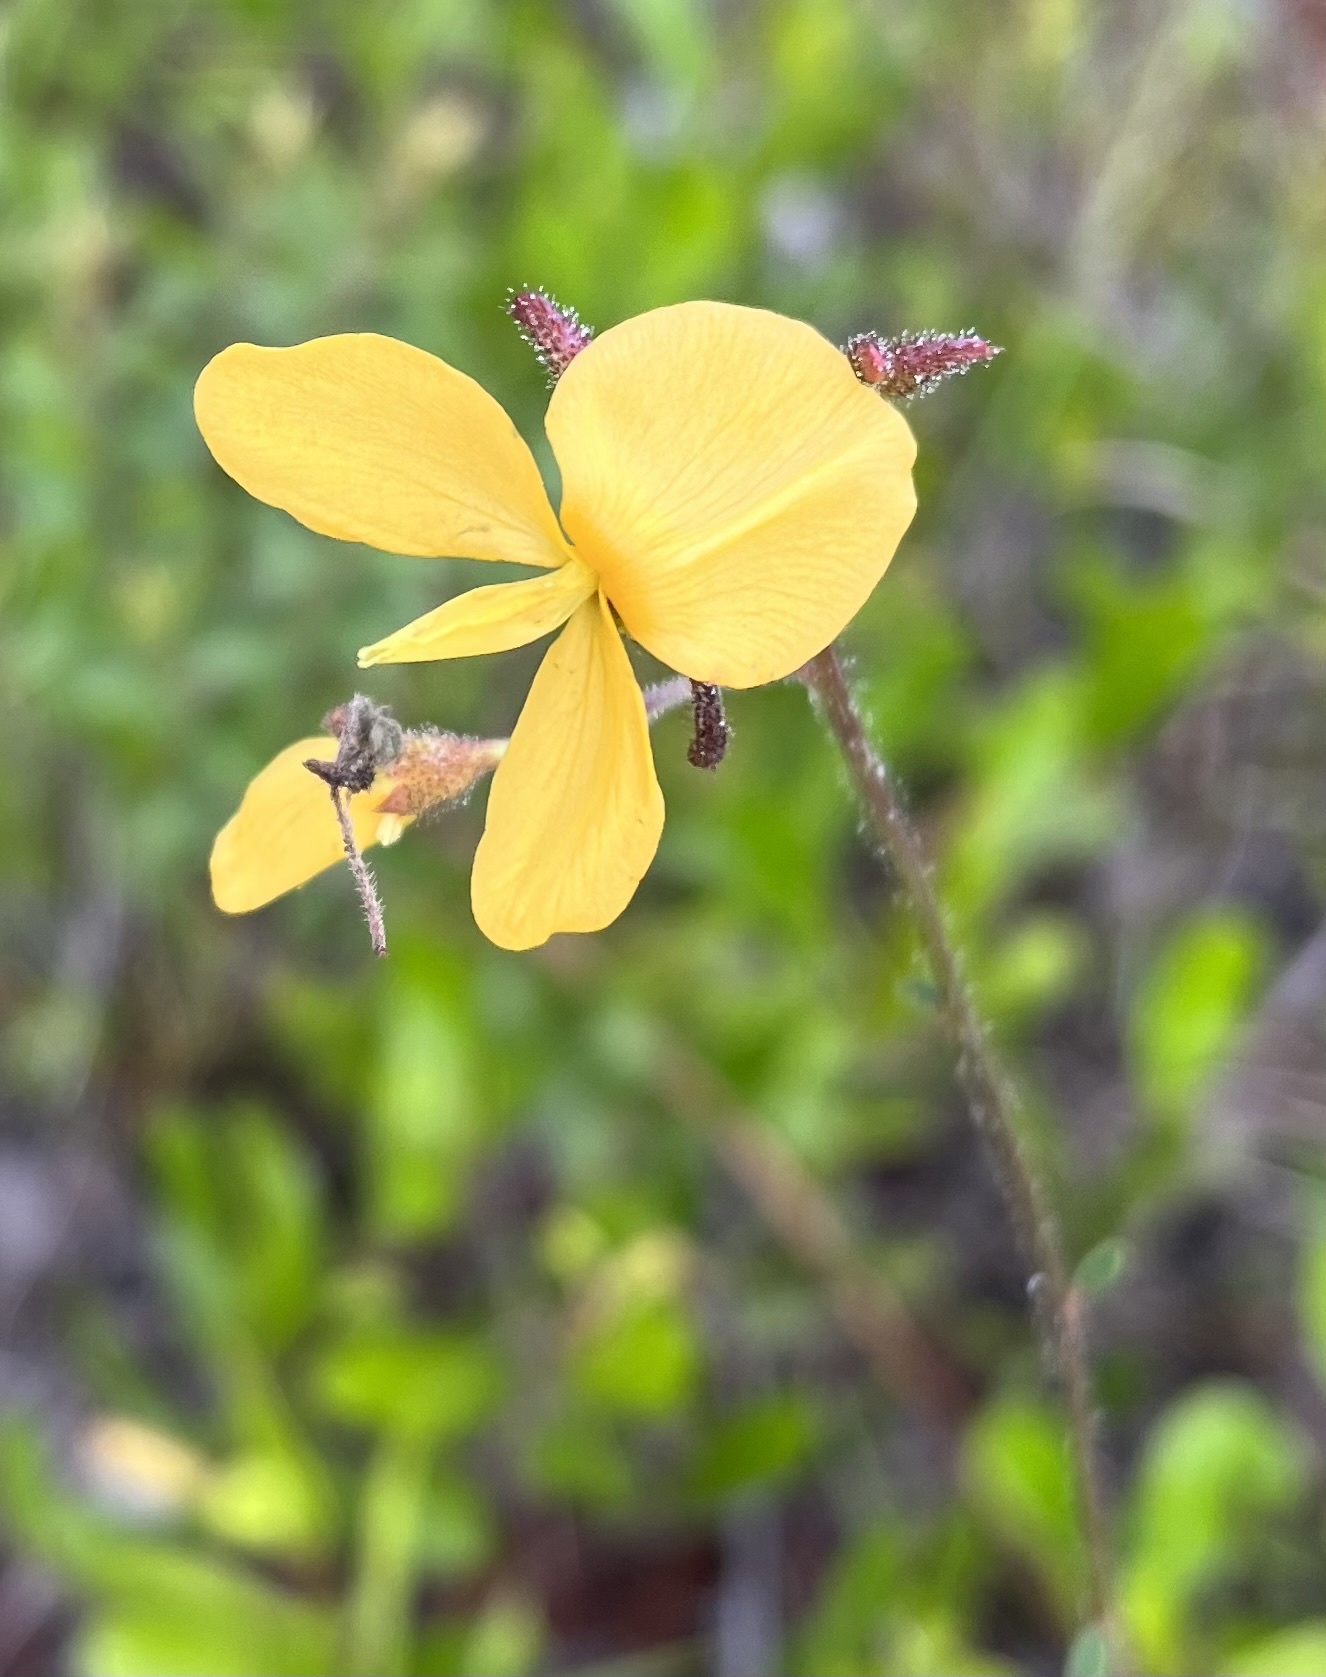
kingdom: Plantae
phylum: Tracheophyta
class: Magnoliopsida
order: Fabales
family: Fabaceae
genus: Chapmannia
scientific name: Chapmannia floridana
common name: Alicia
